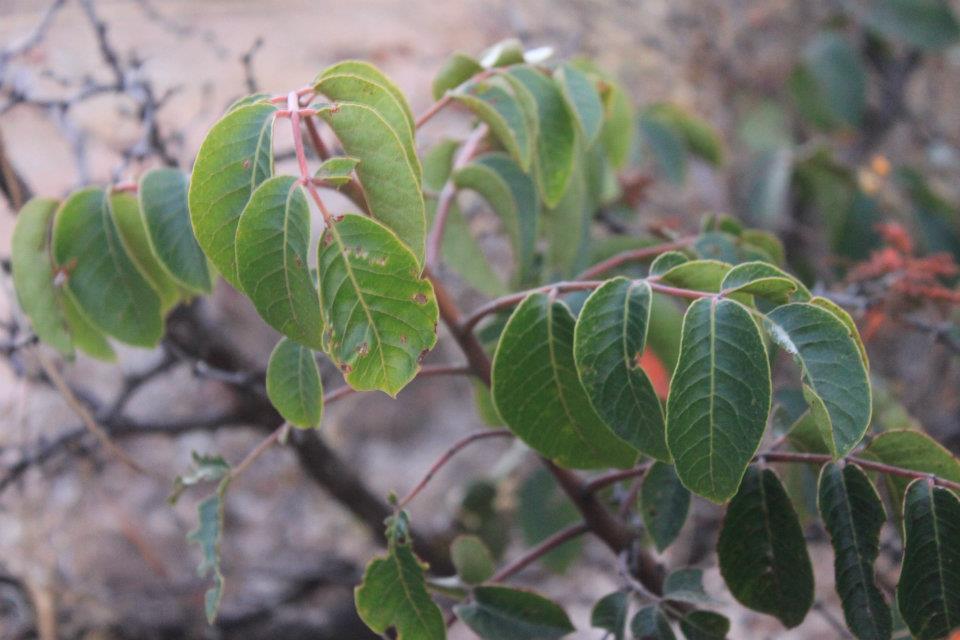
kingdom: Plantae
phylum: Tracheophyta
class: Magnoliopsida
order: Sapindales
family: Anacardiaceae
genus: Rhus
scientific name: Rhus virens
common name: Evergreen sumac
